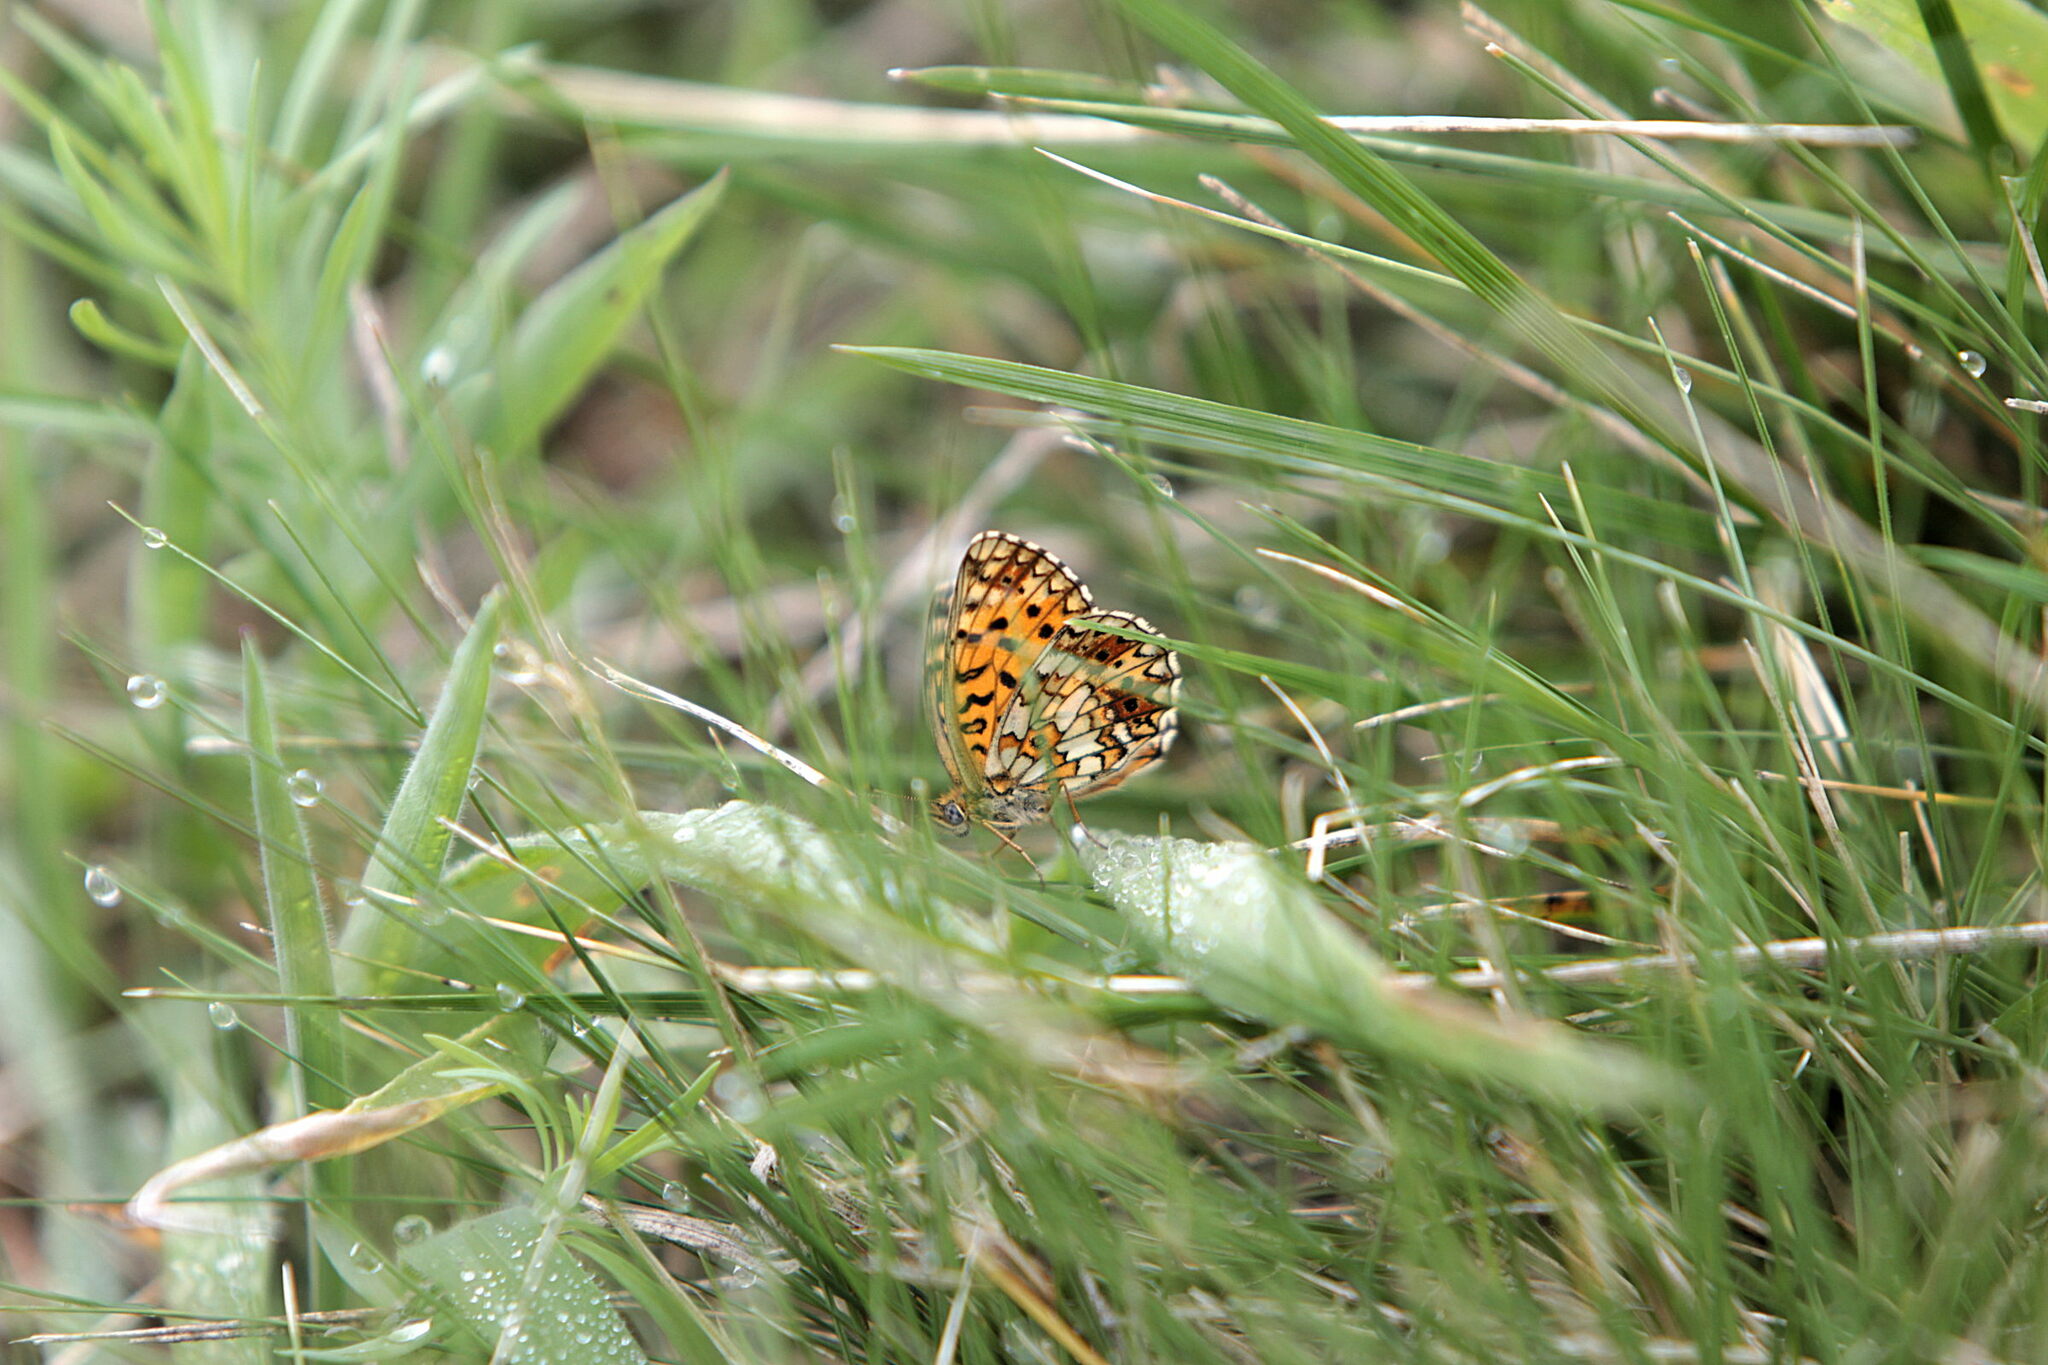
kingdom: Animalia
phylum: Arthropoda
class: Insecta
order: Lepidoptera
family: Nymphalidae
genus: Boloria
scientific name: Boloria selene
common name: Small pearl-bordered fritillary
